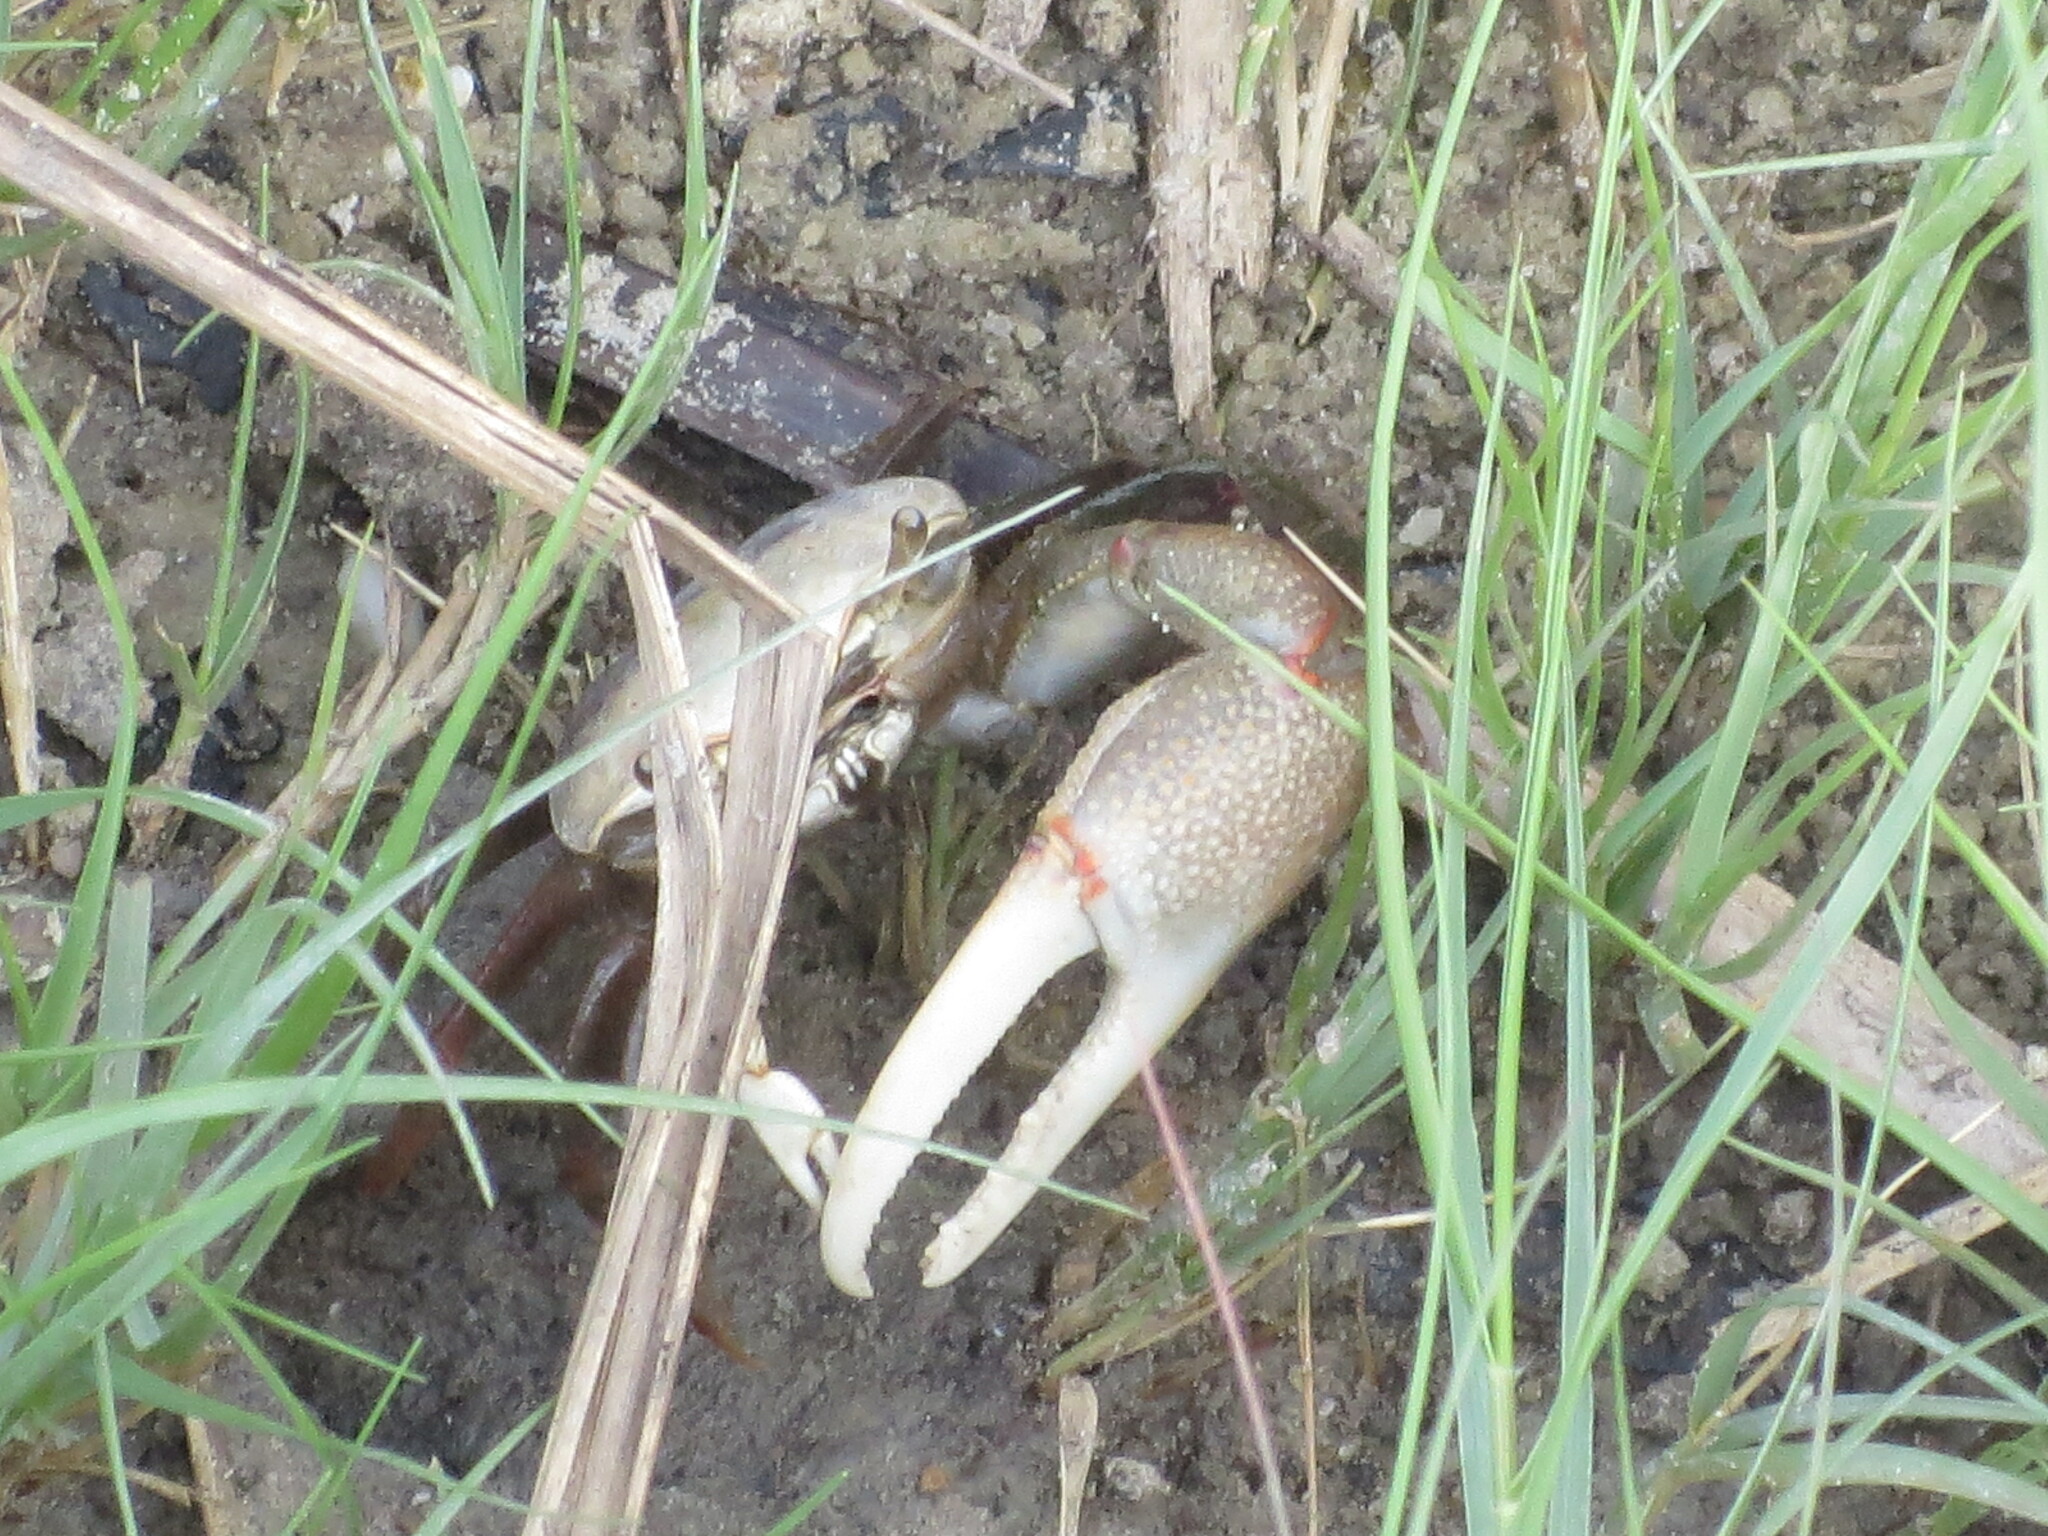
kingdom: Animalia
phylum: Arthropoda
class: Malacostraca
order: Decapoda
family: Ocypodidae
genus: Minuca
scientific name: Minuca minax
